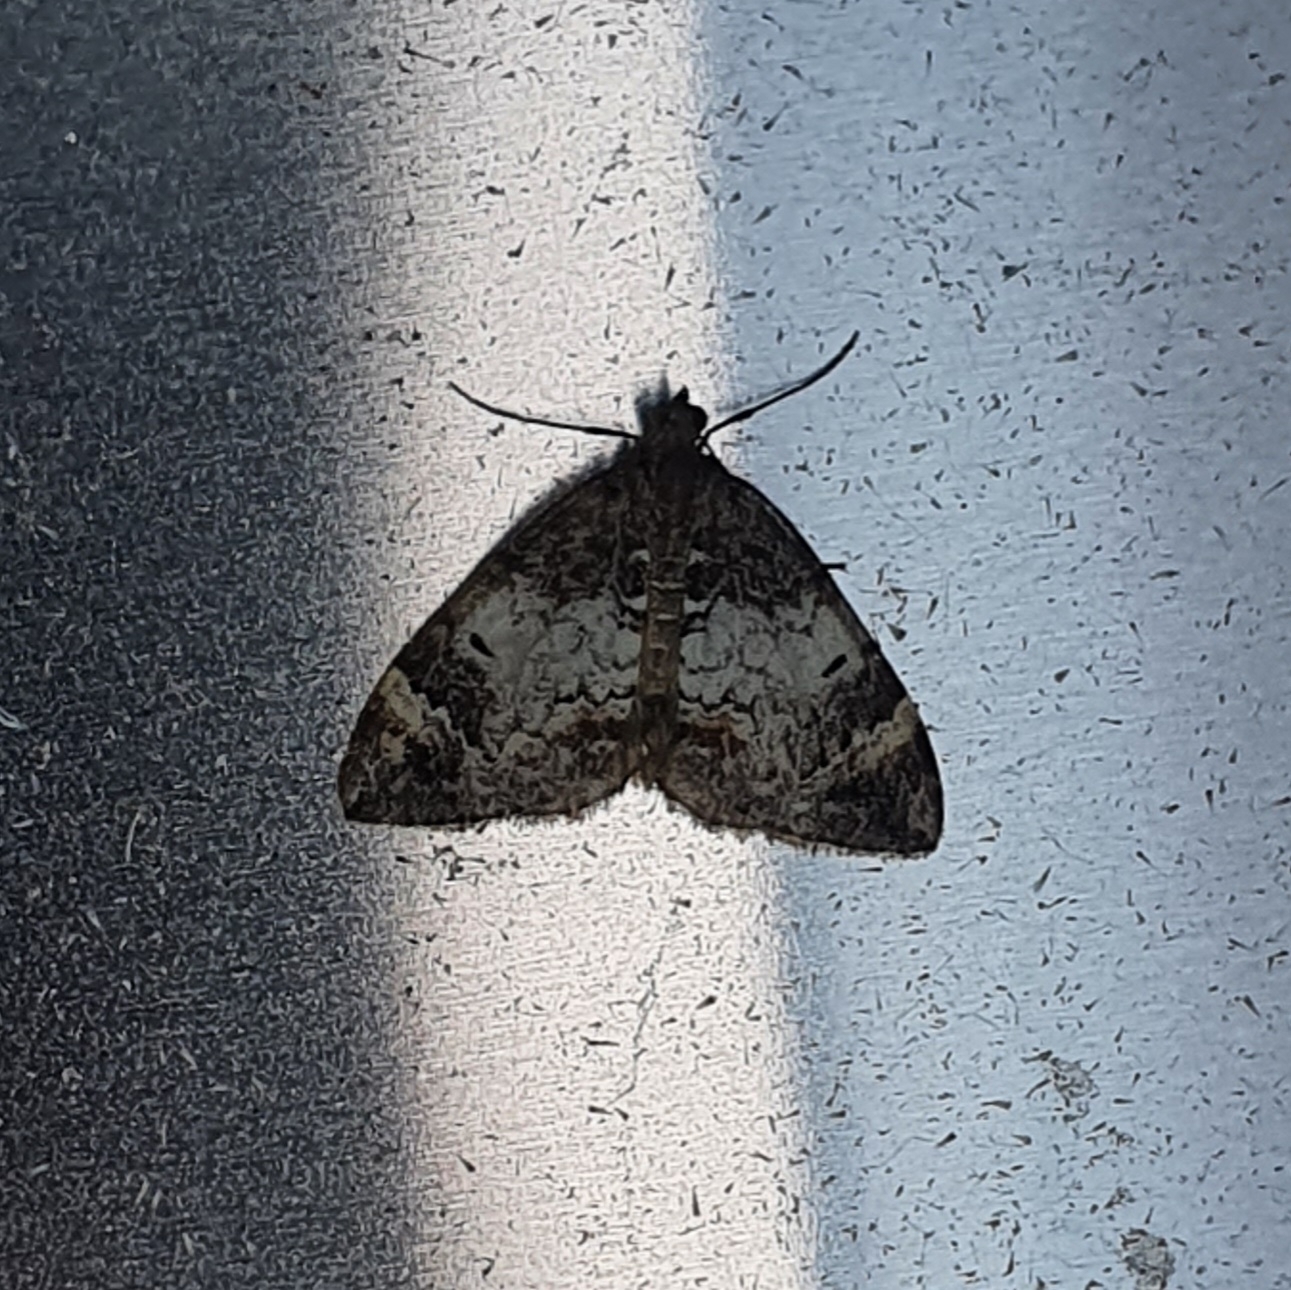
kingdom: Animalia
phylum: Arthropoda
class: Insecta
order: Lepidoptera
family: Geometridae
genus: Dysstroma
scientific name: Dysstroma truncata
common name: Common marbled carpet
